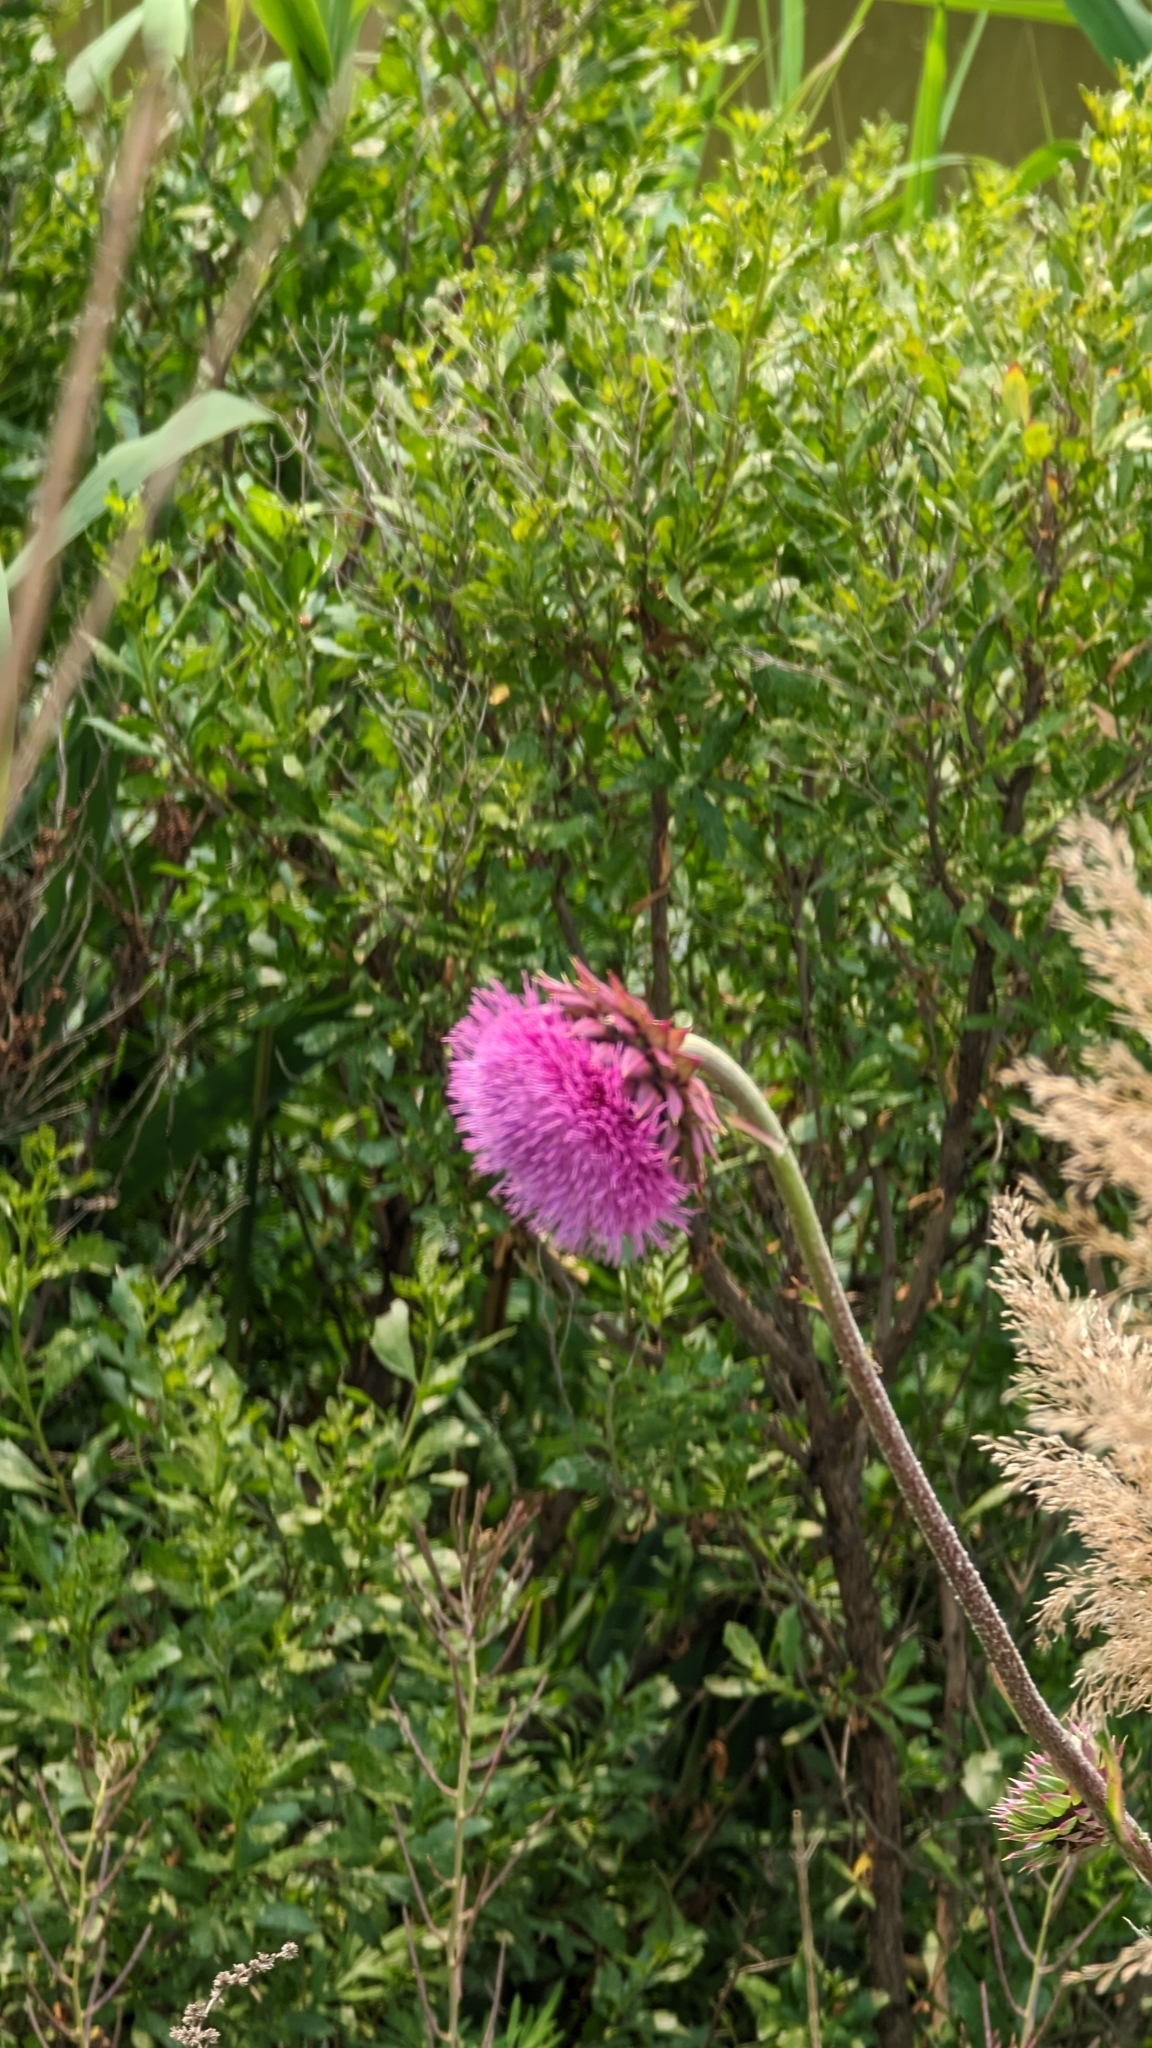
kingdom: Plantae
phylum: Tracheophyta
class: Magnoliopsida
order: Asterales
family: Asteraceae
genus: Carduus
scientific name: Carduus nutans
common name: Musk thistle
